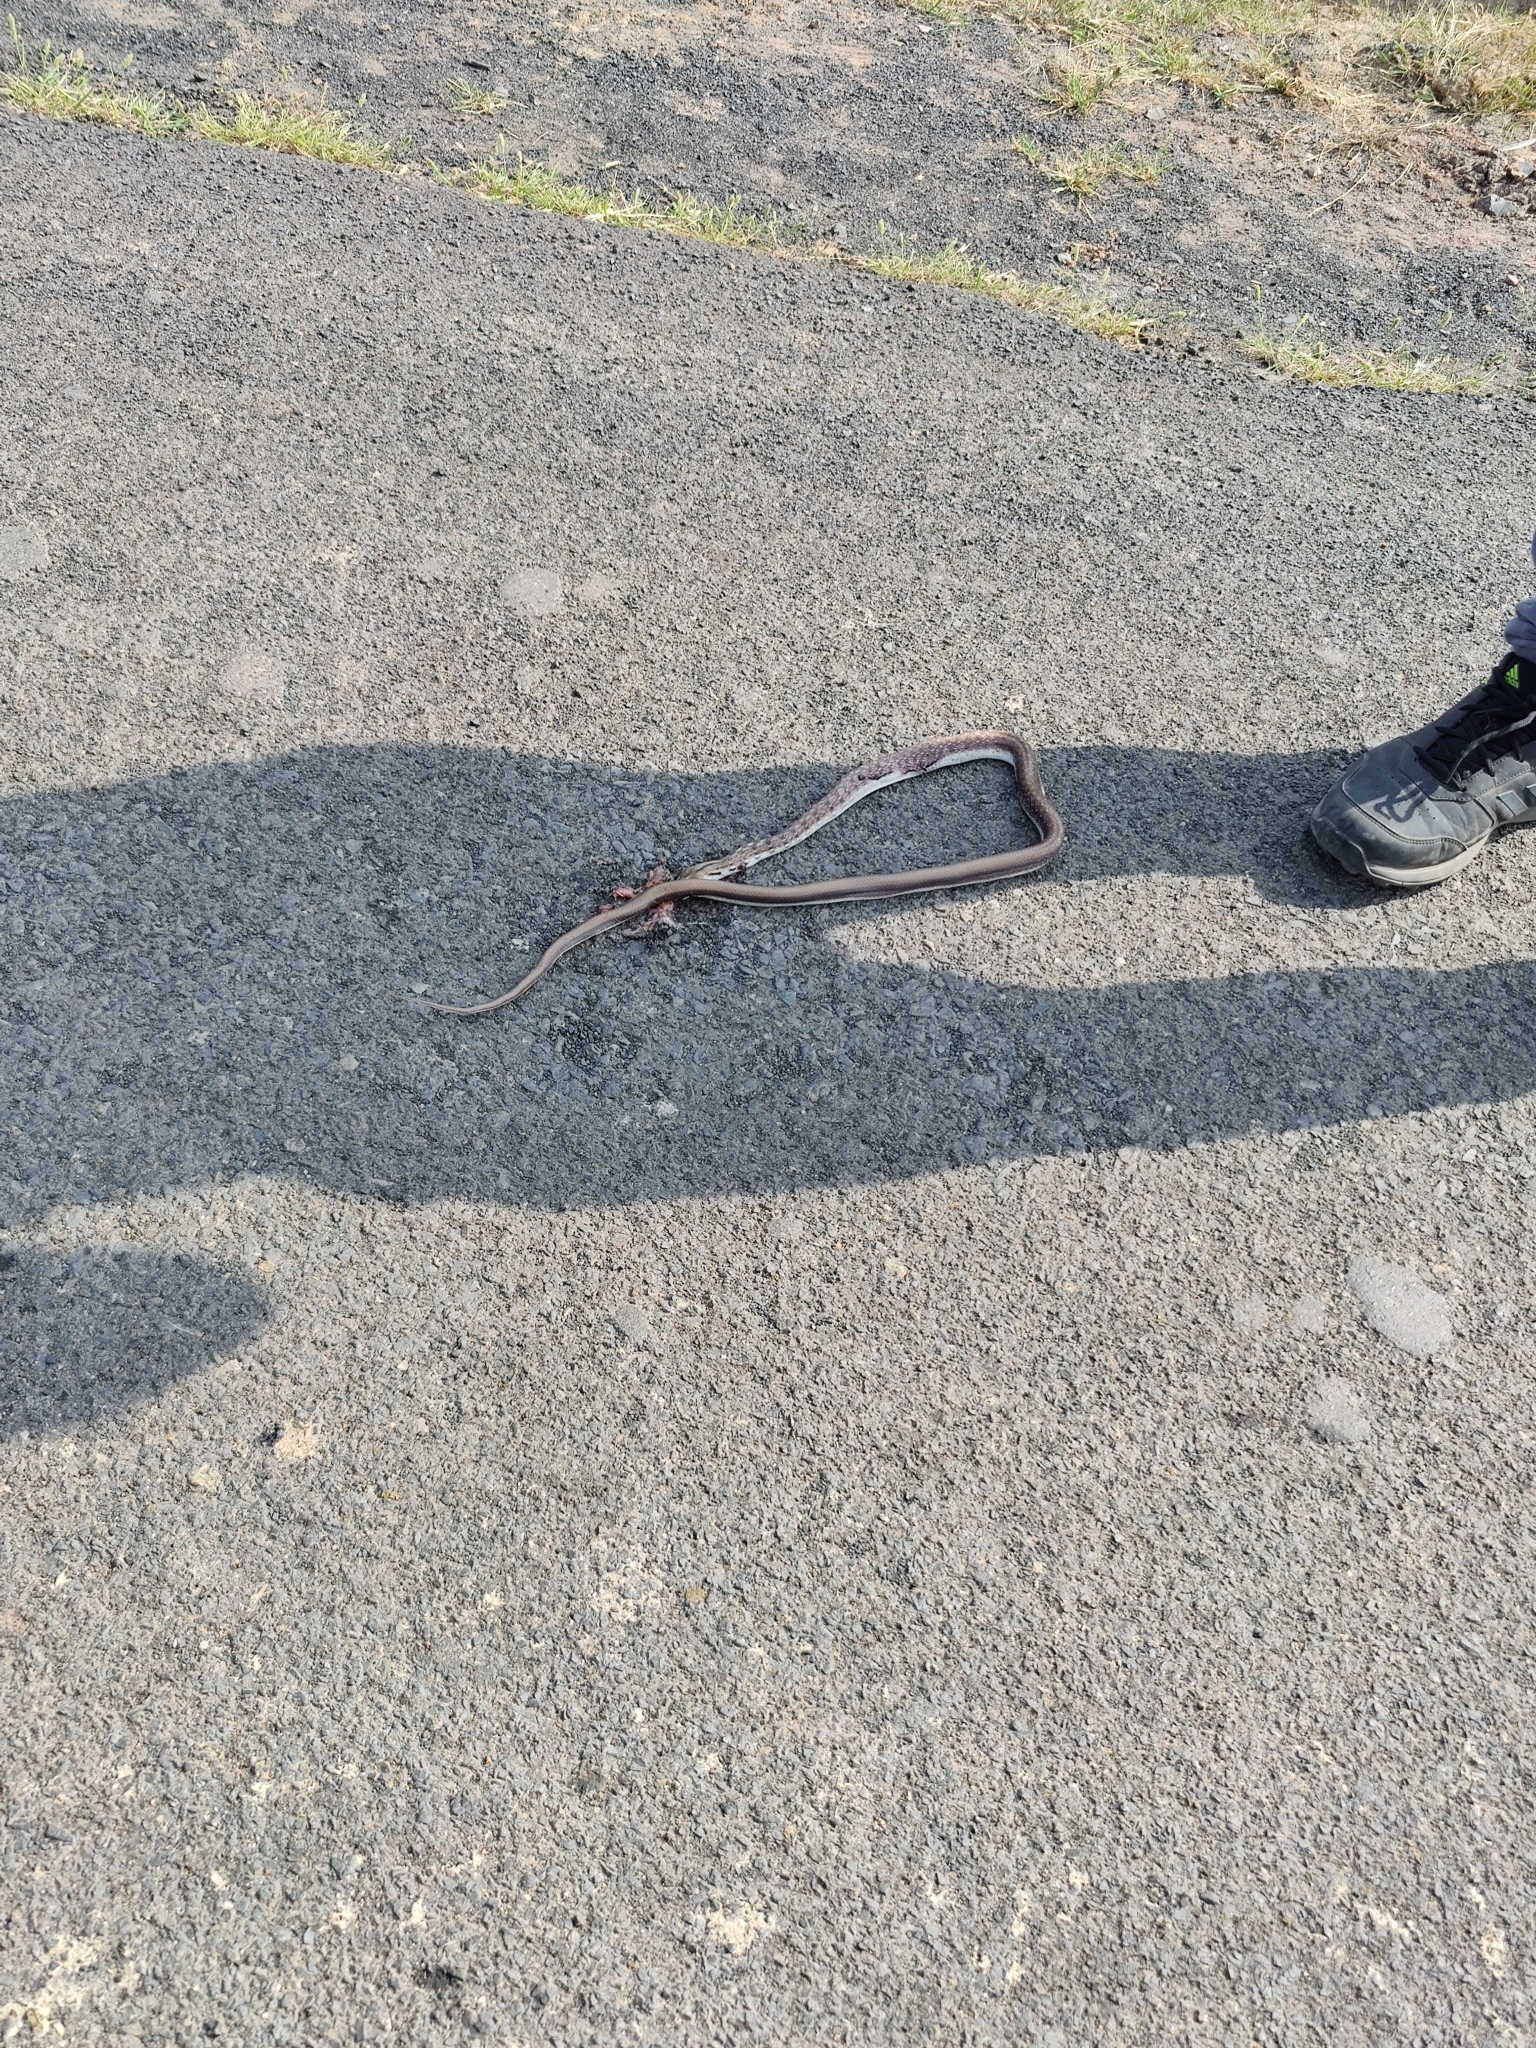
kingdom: Animalia
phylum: Chordata
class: Squamata
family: Colubridae
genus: Coelognathus
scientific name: Coelognathus helena
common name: Trinket snake
